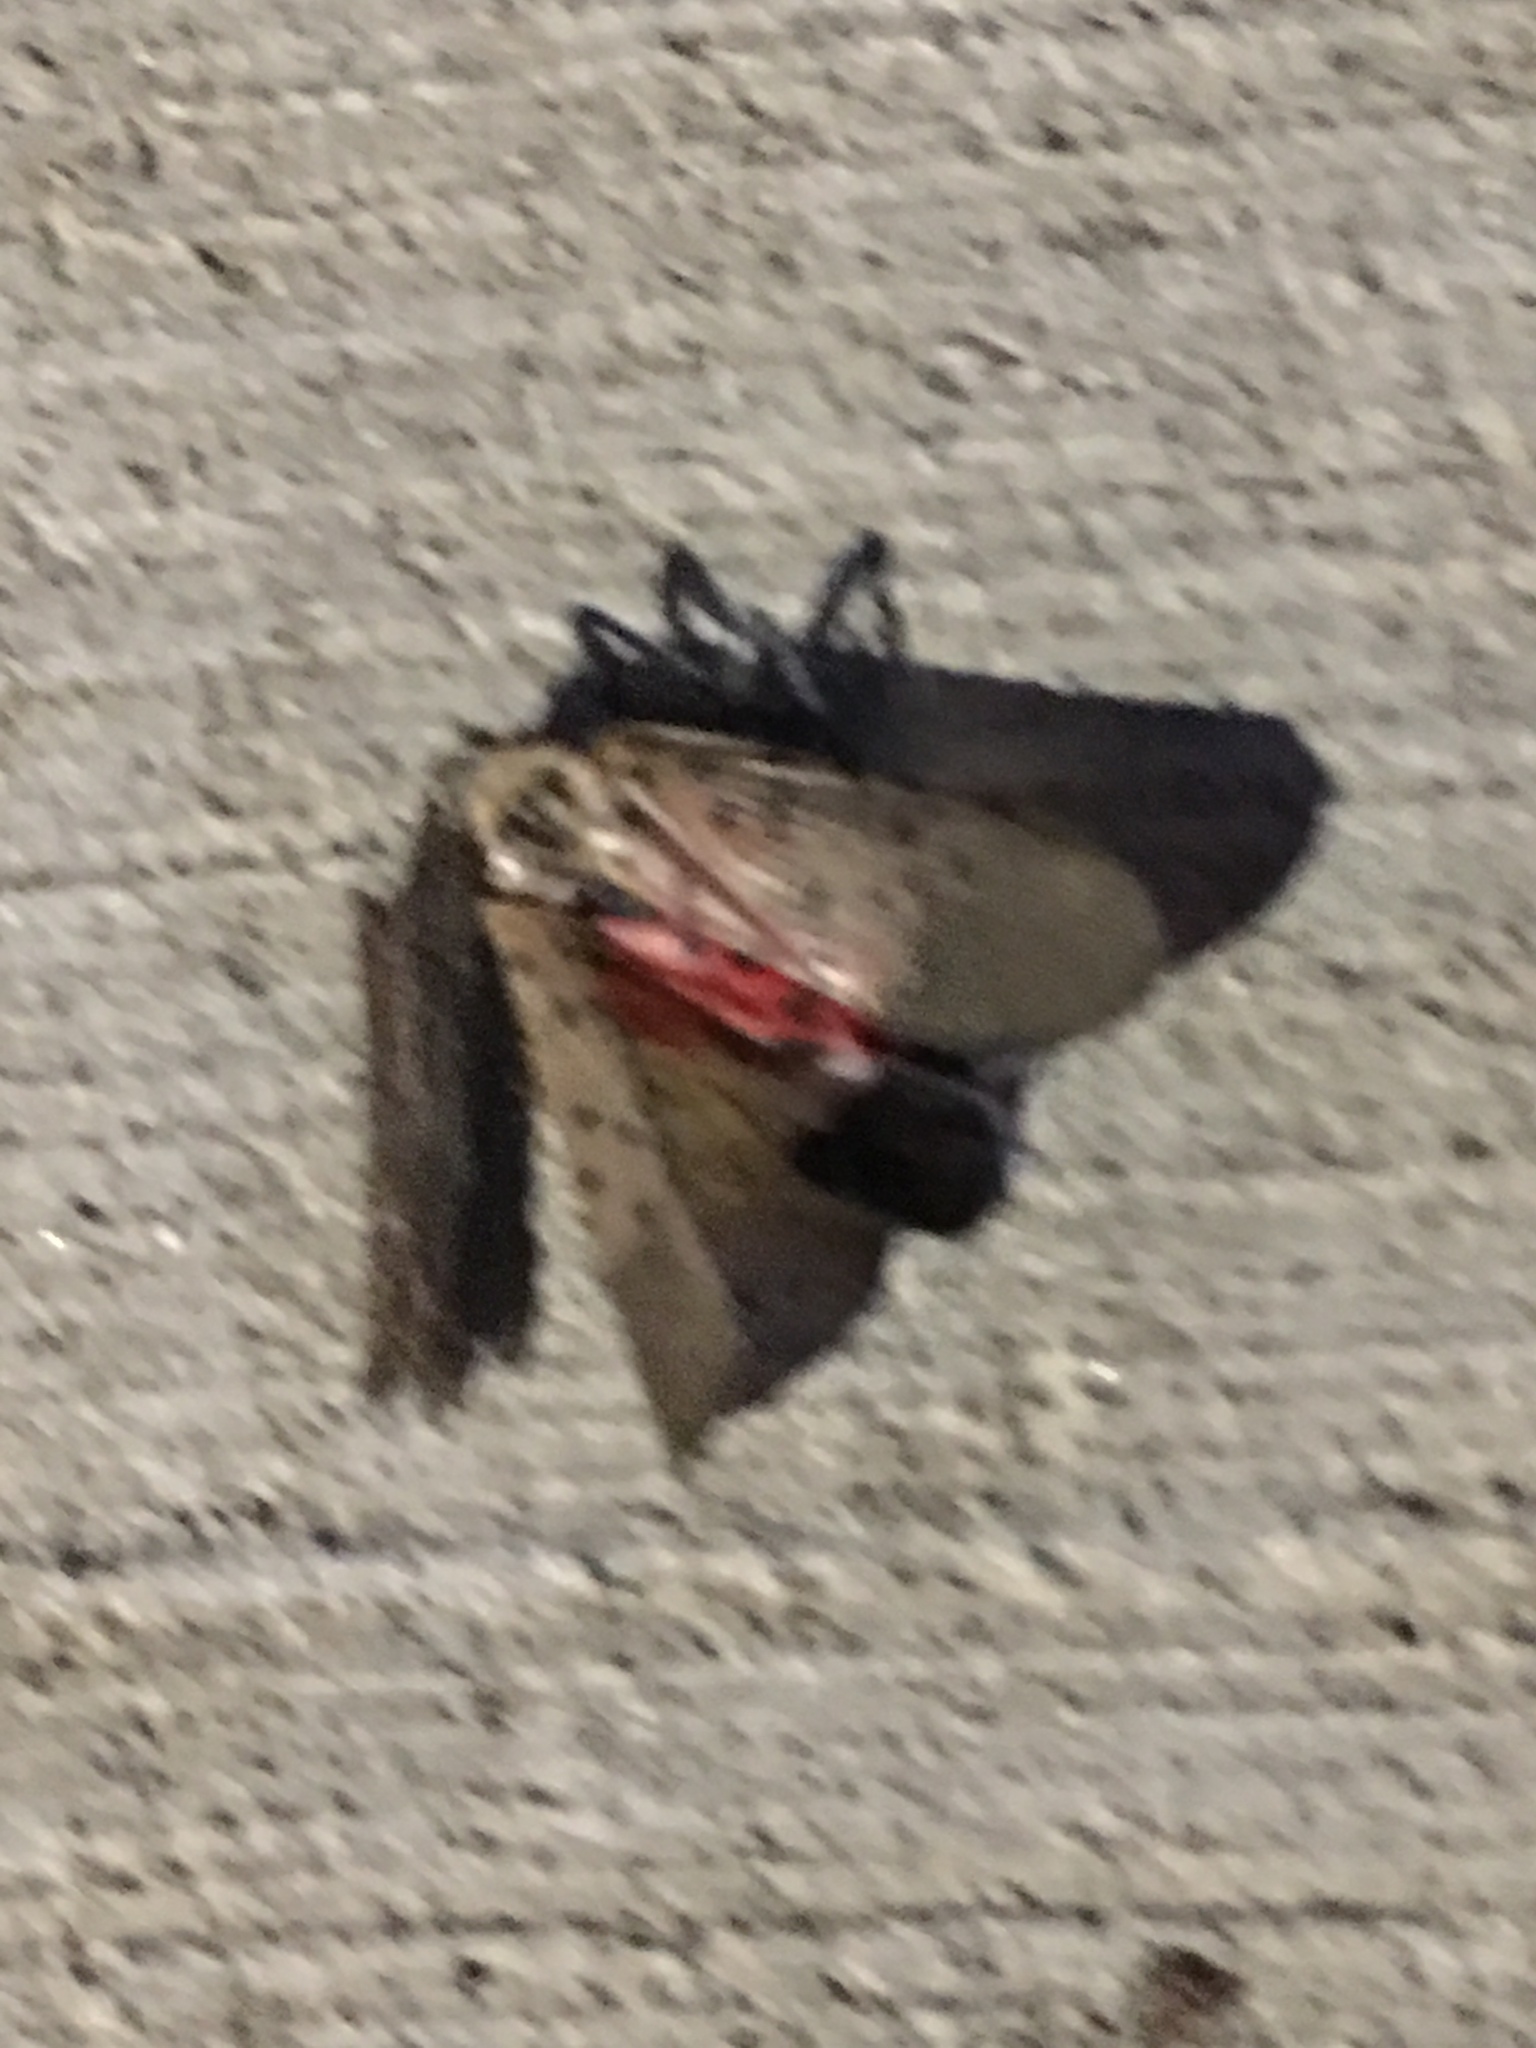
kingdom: Animalia
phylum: Arthropoda
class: Insecta
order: Hemiptera
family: Fulgoridae
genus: Lycorma
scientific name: Lycorma delicatula
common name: Spotted lanternfly
